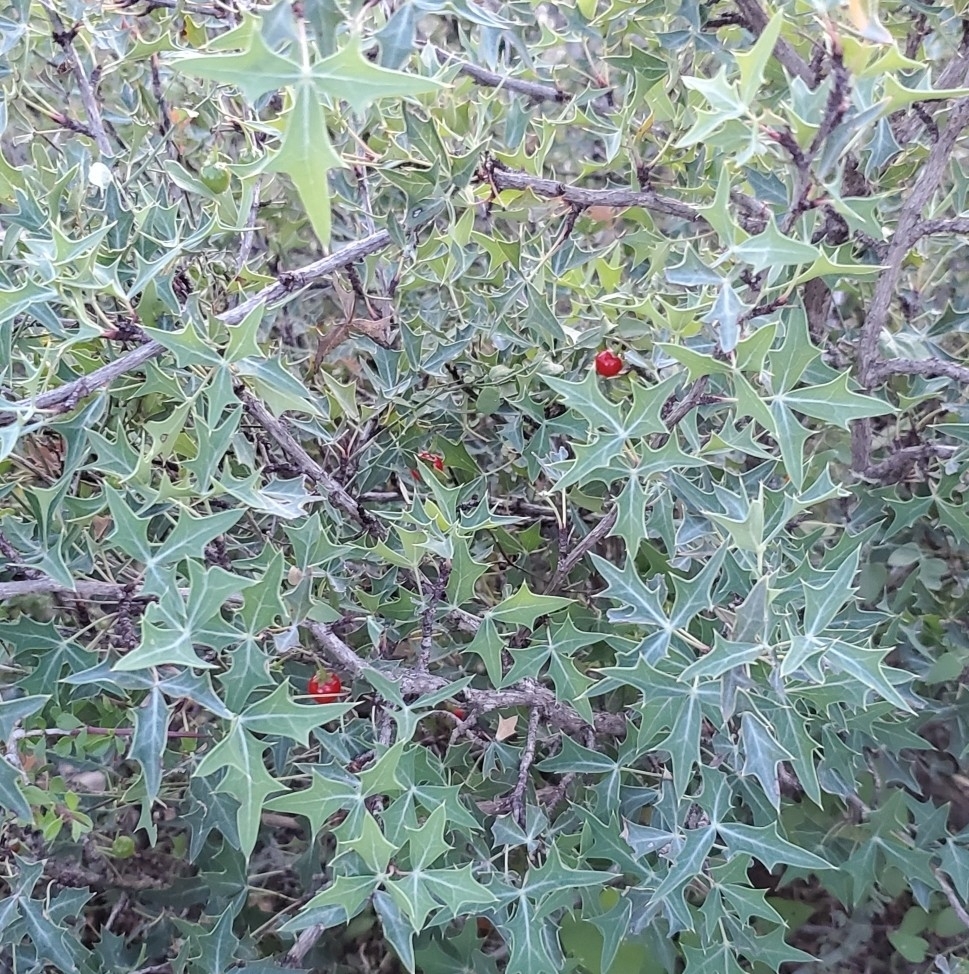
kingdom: Plantae
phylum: Tracheophyta
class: Magnoliopsida
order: Ranunculales
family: Berberidaceae
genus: Alloberberis
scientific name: Alloberberis trifoliolata
